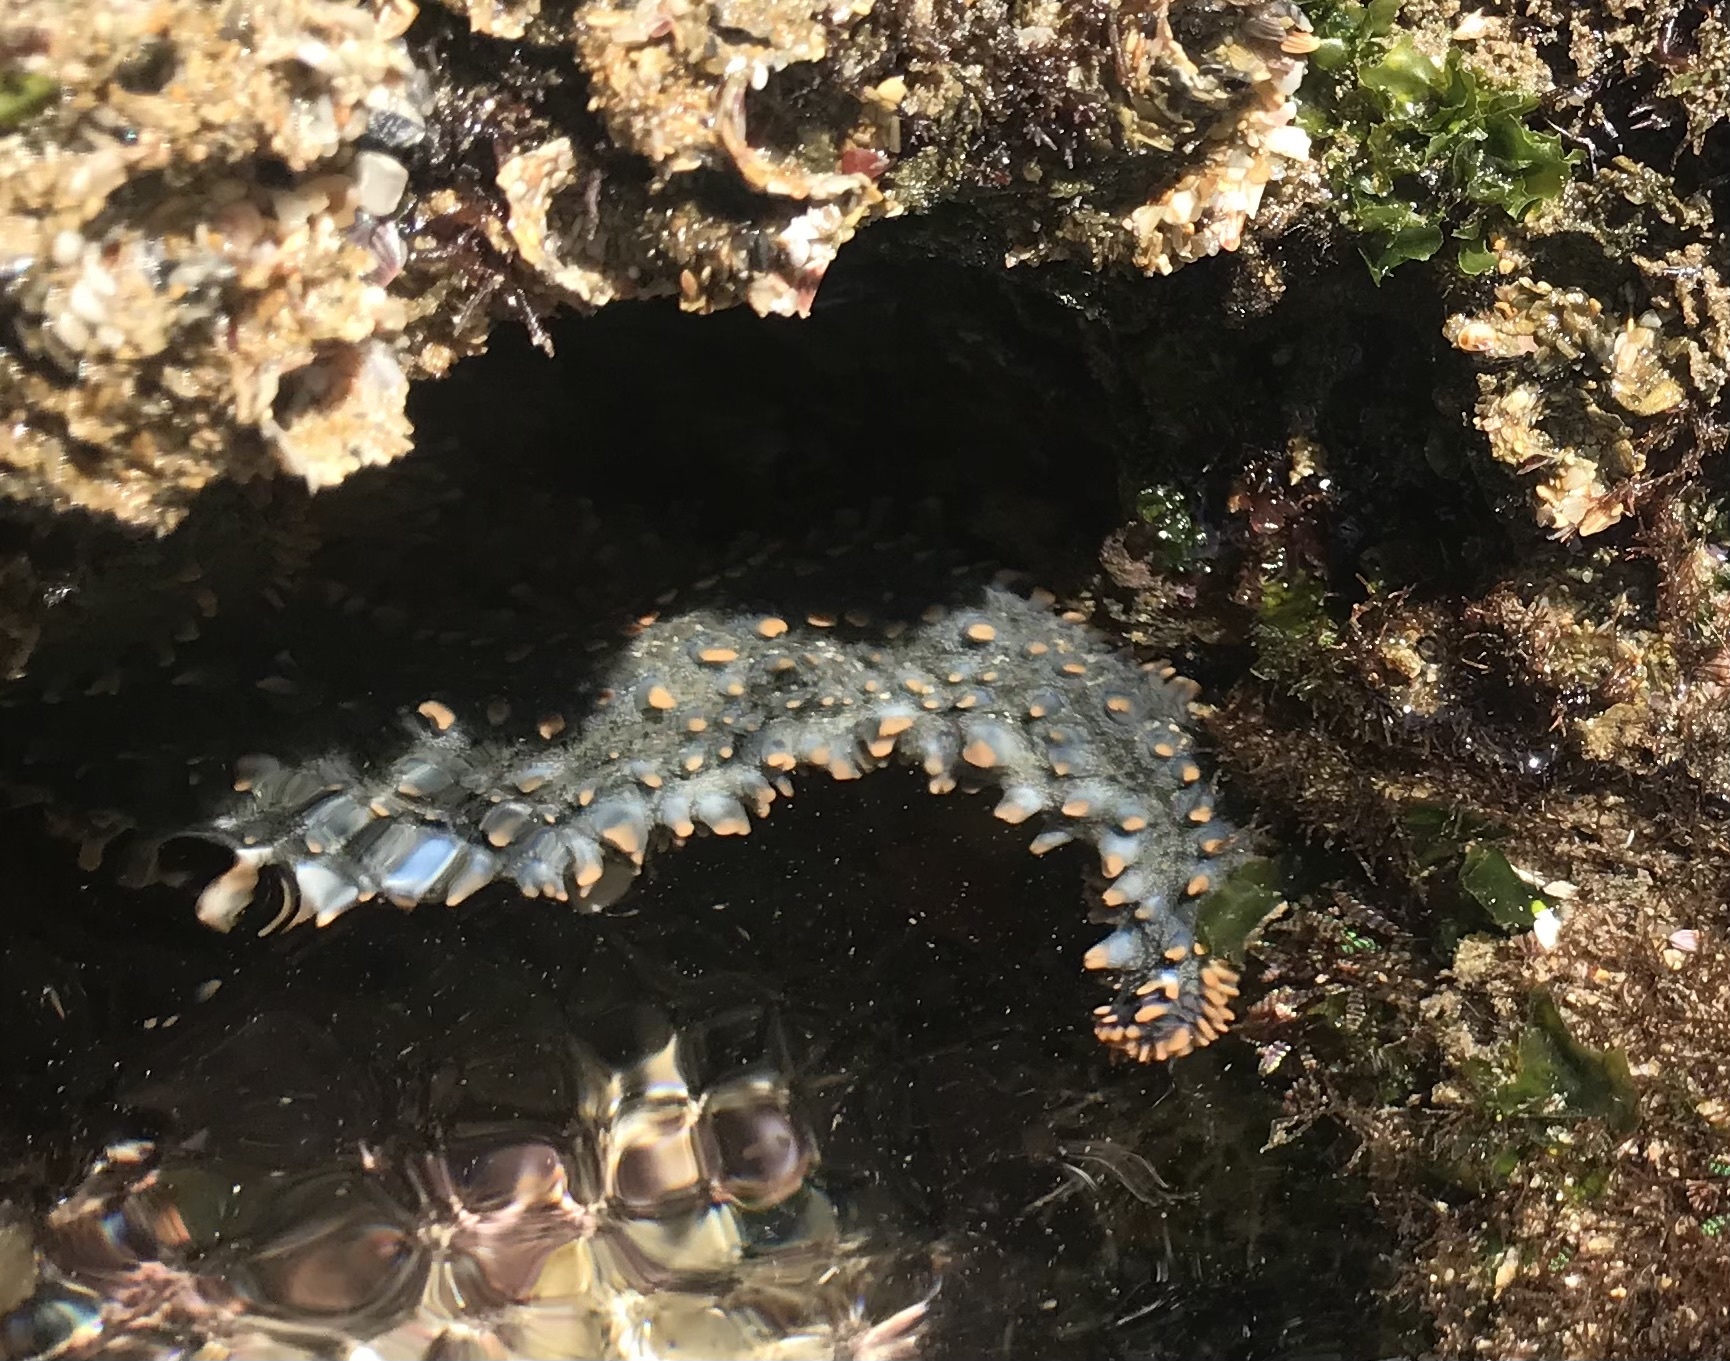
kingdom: Animalia
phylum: Echinodermata
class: Asteroidea
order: Forcipulatida
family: Asteriidae
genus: Marthasterias
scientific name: Marthasterias africana
